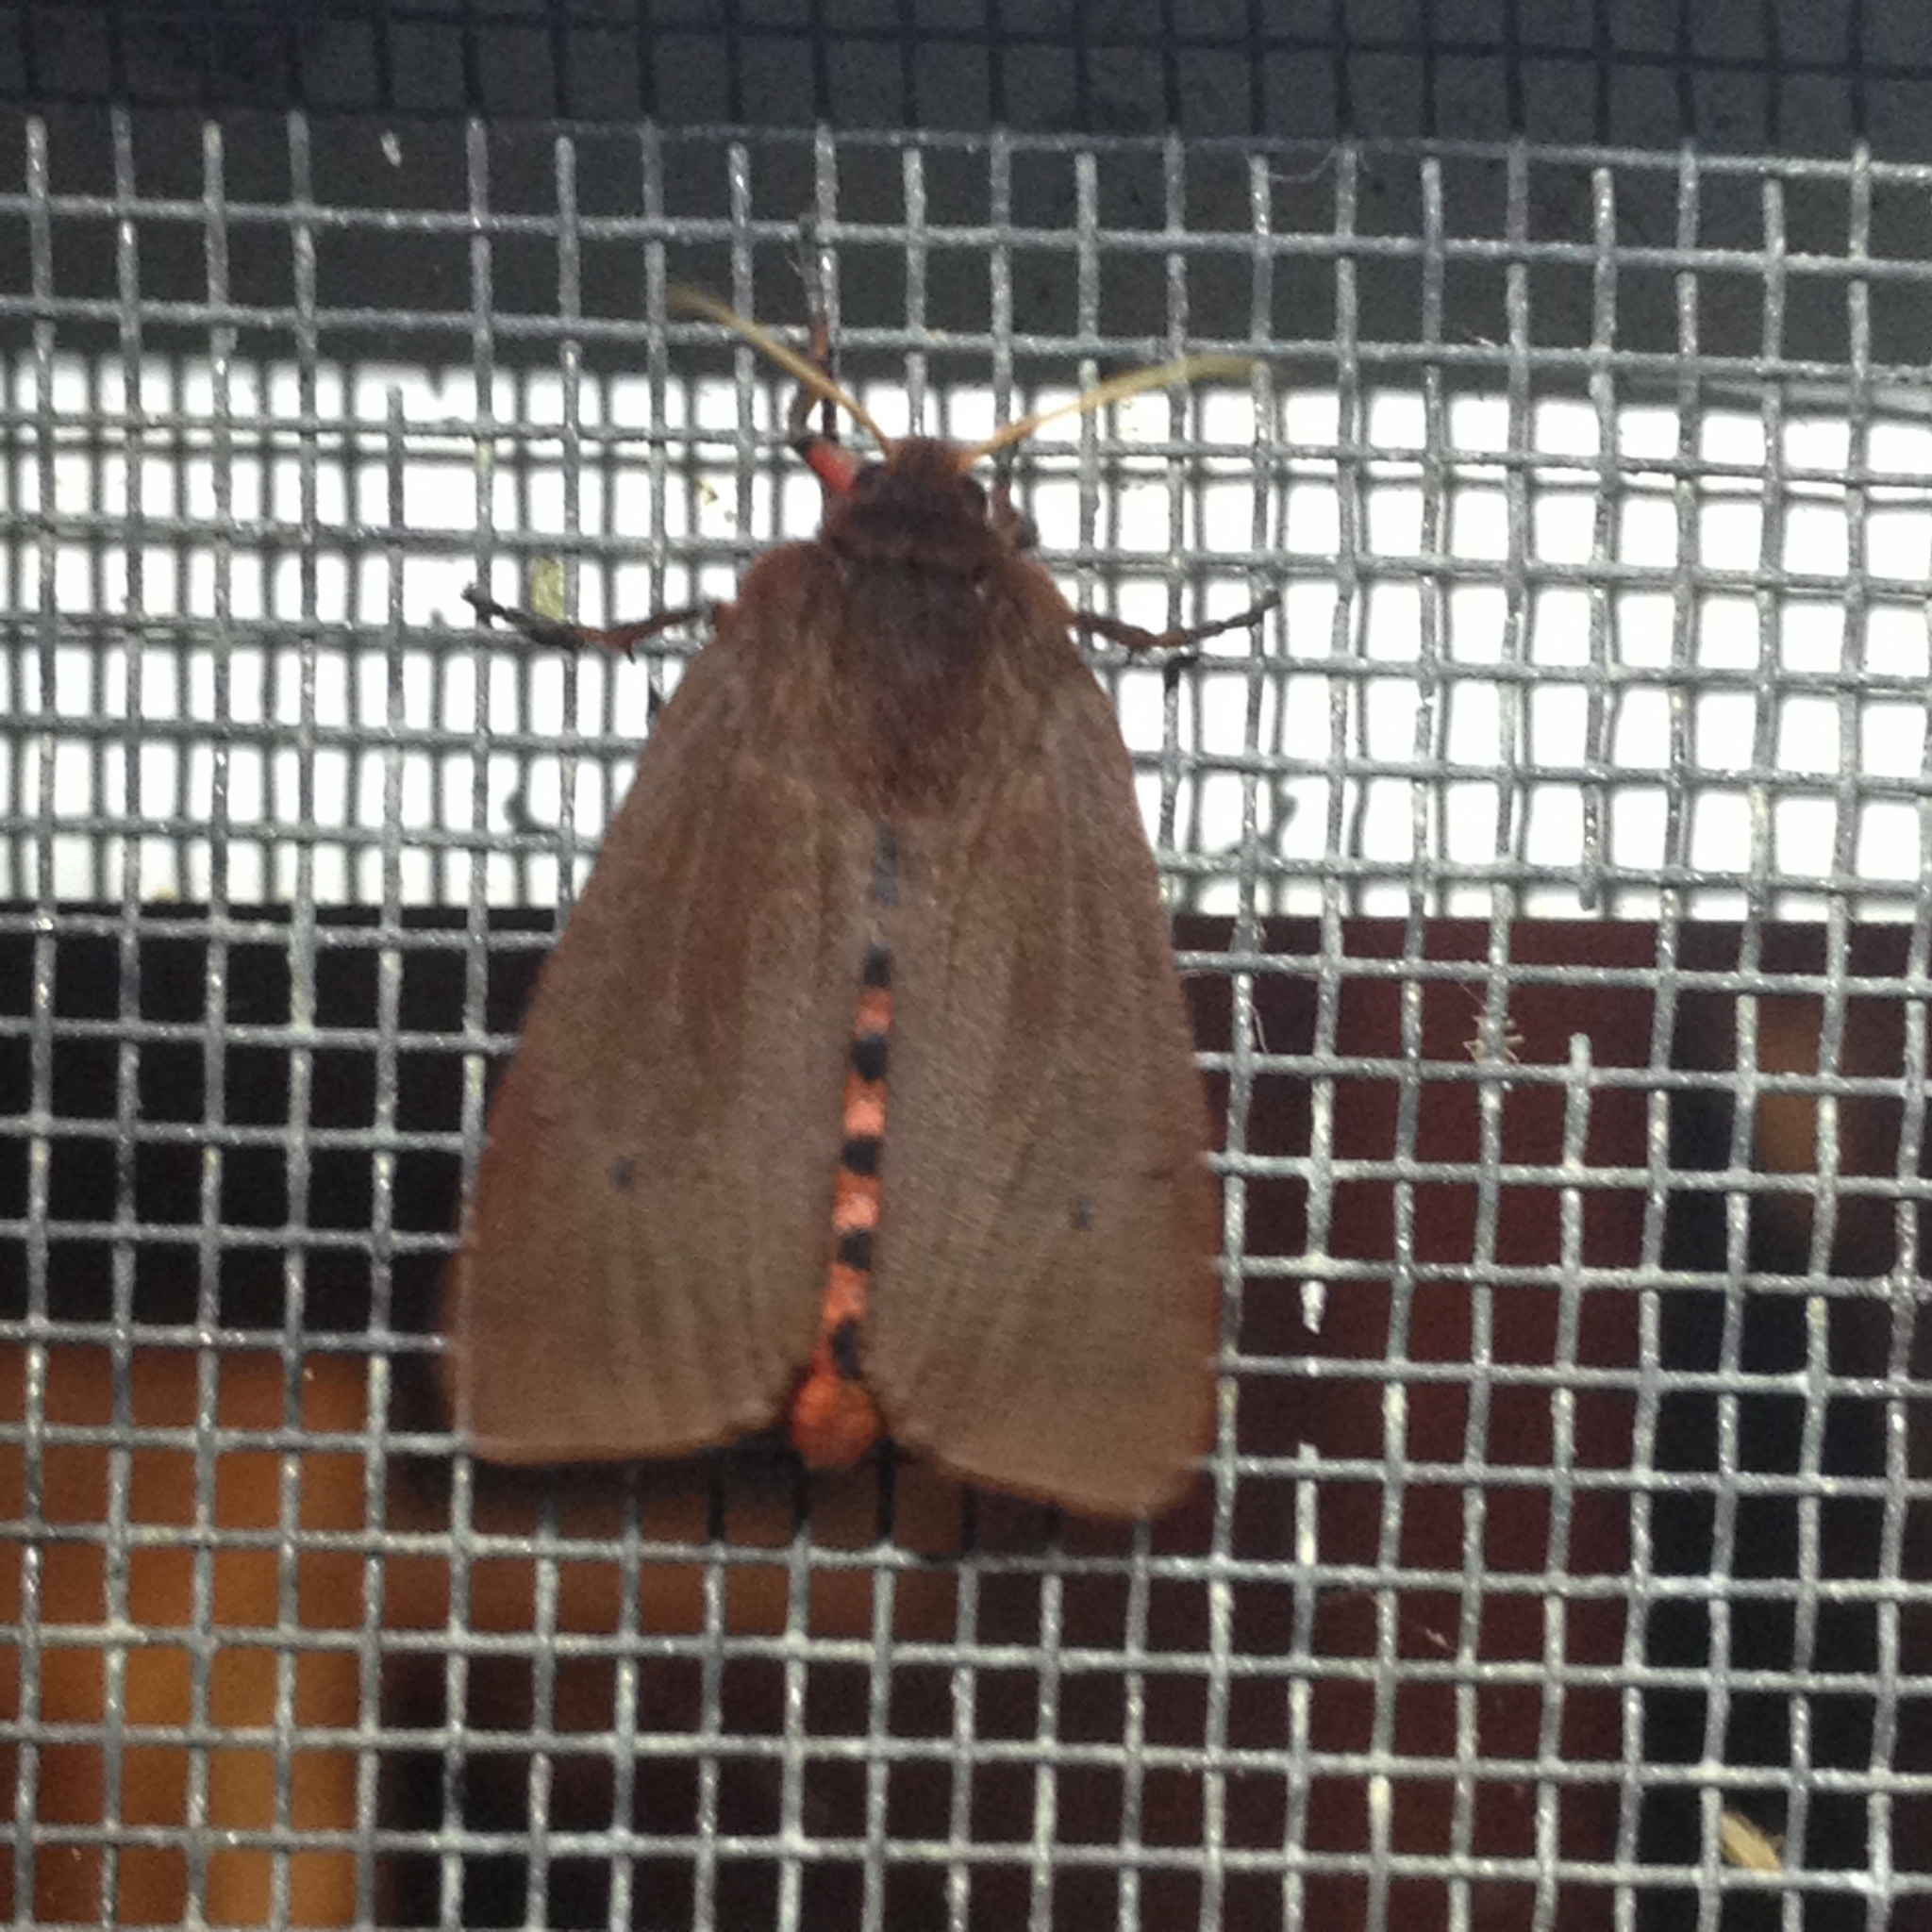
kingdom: Animalia
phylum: Arthropoda
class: Insecta
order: Lepidoptera
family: Erebidae
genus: Phragmatobia
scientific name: Phragmatobia fuliginosa
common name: Ruby tiger
